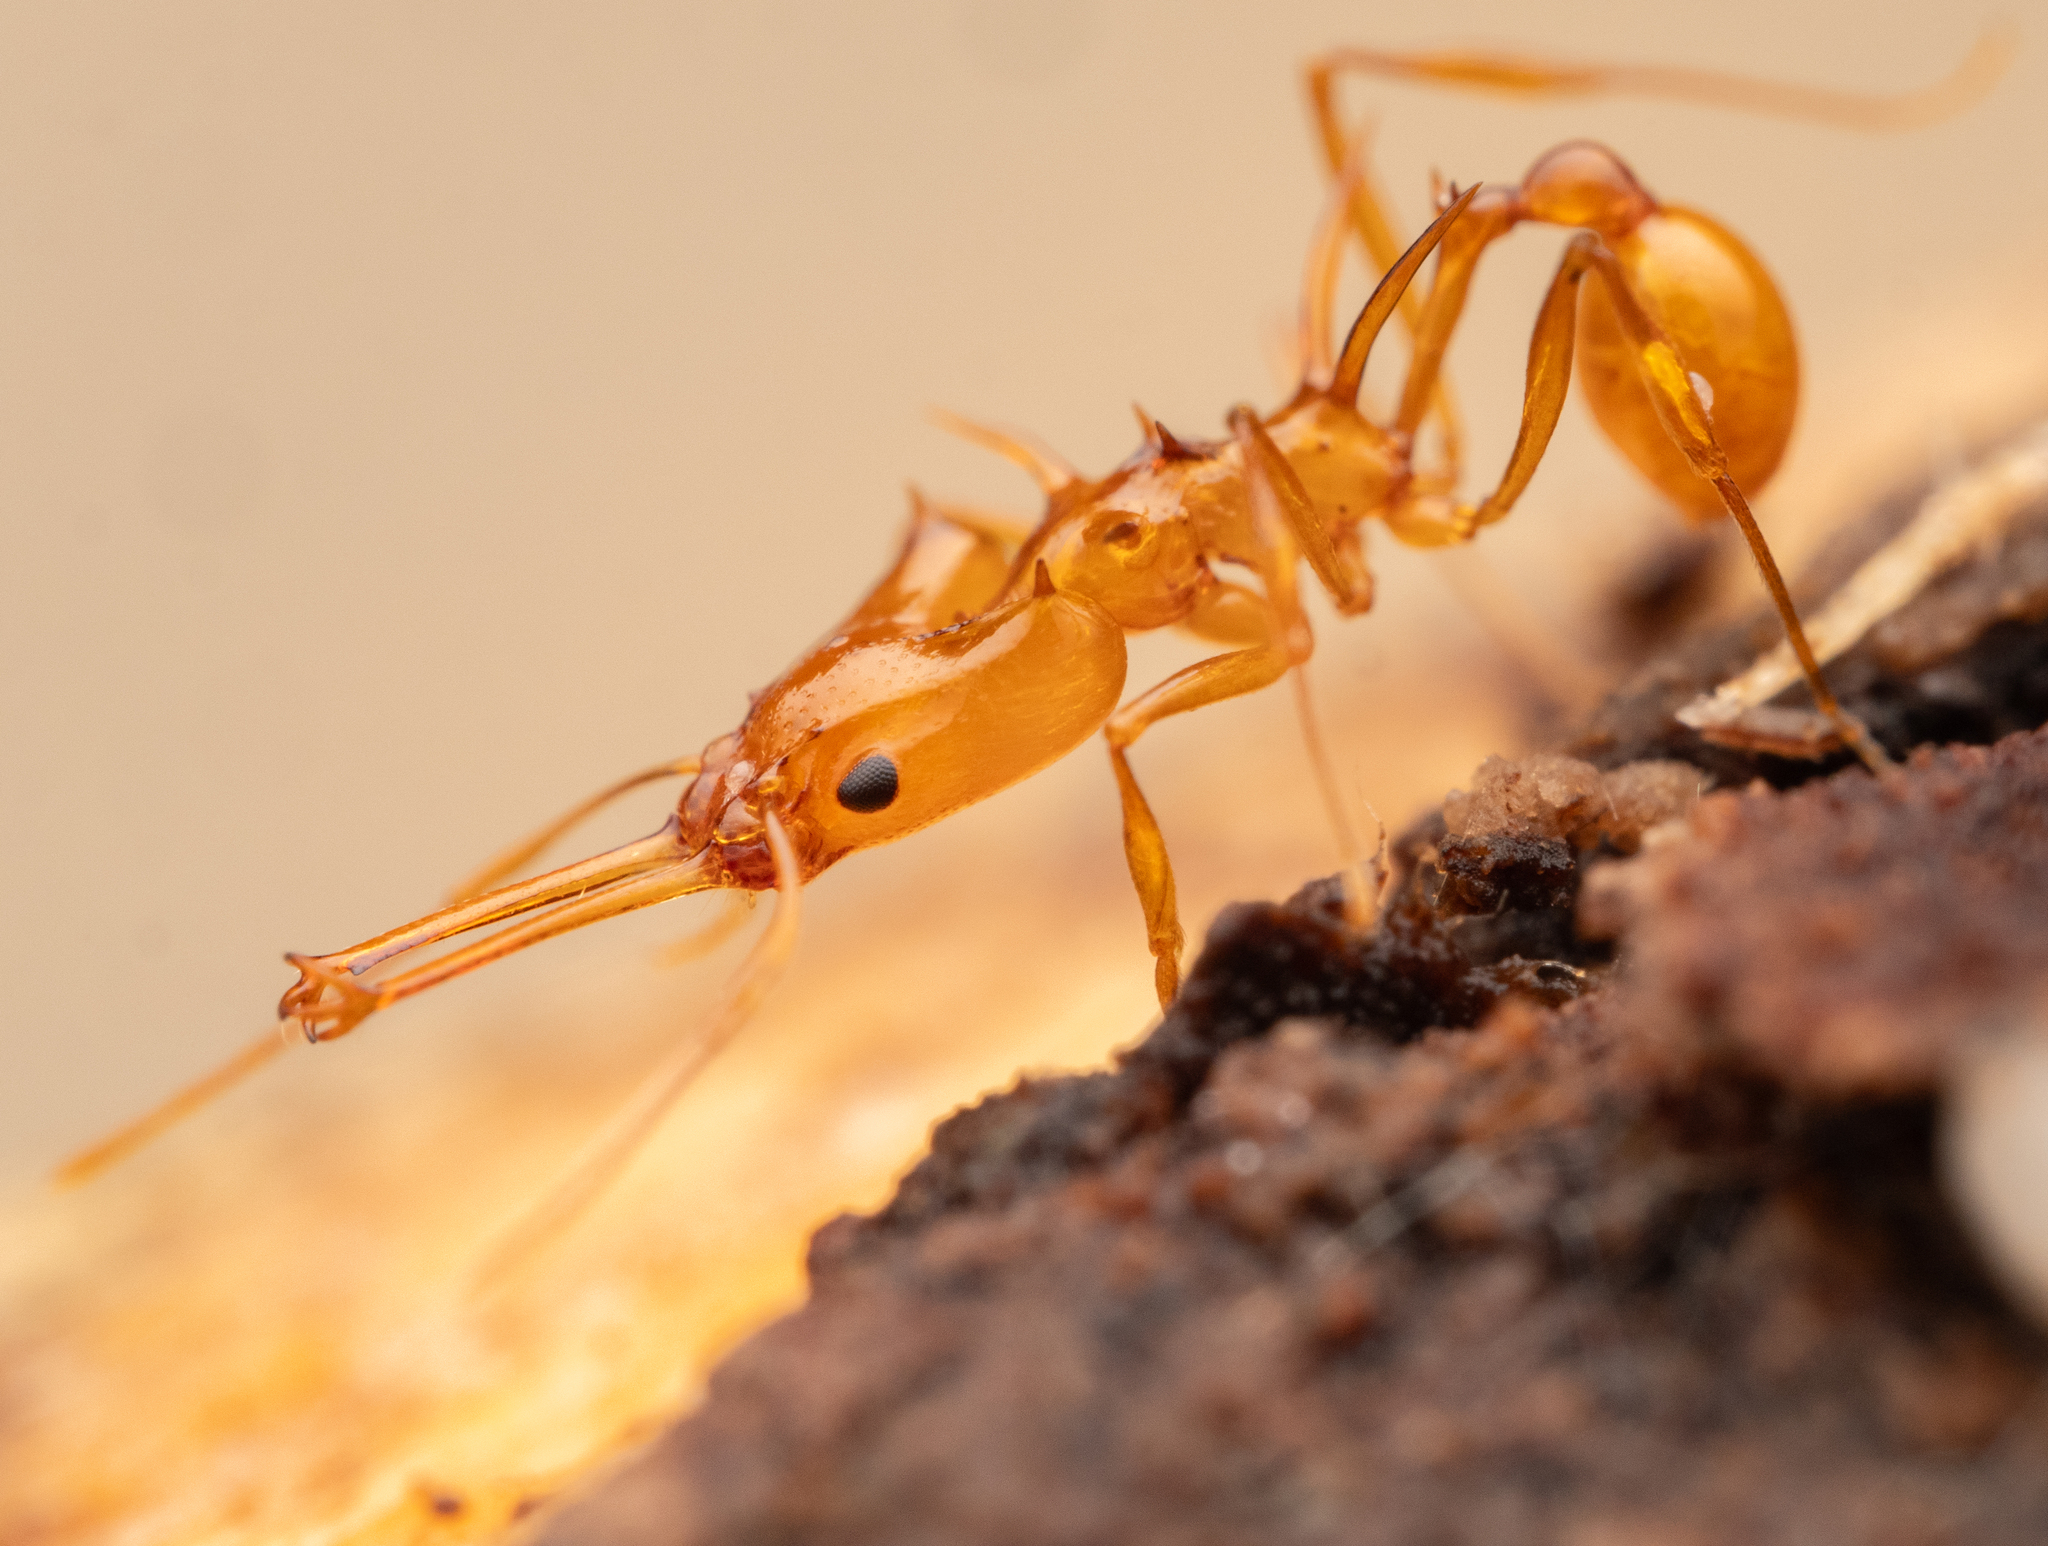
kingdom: Animalia
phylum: Arthropoda
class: Insecta
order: Hymenoptera
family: Formicidae
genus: Orectognathus
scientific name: Orectognathus hystrix
